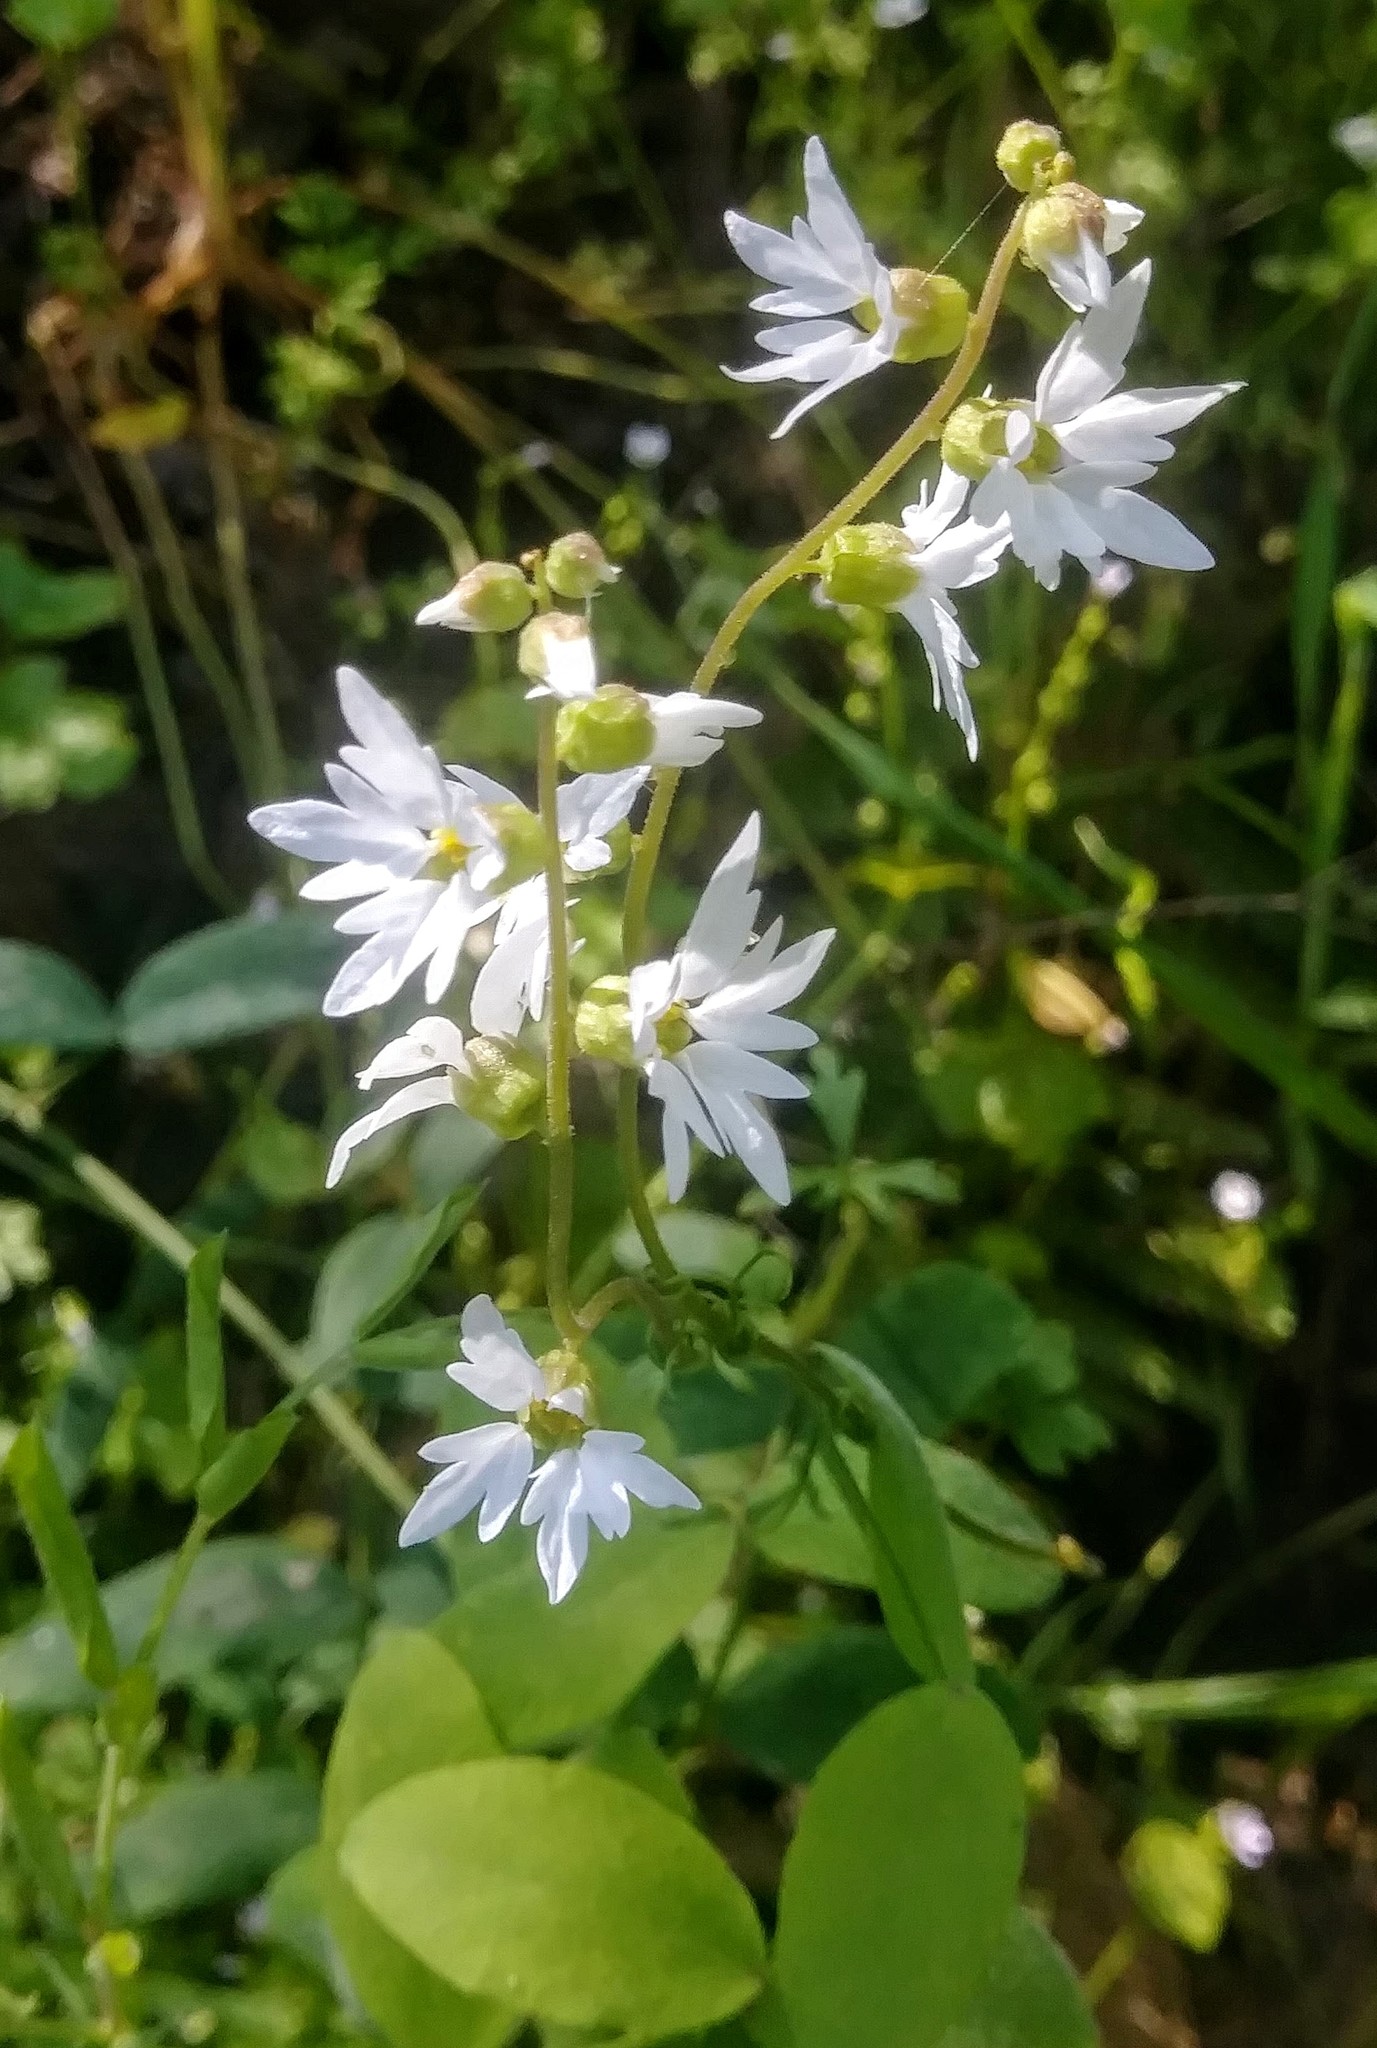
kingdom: Plantae
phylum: Tracheophyta
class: Magnoliopsida
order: Saxifragales
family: Saxifragaceae
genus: Lithophragma
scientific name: Lithophragma heterophyllum
